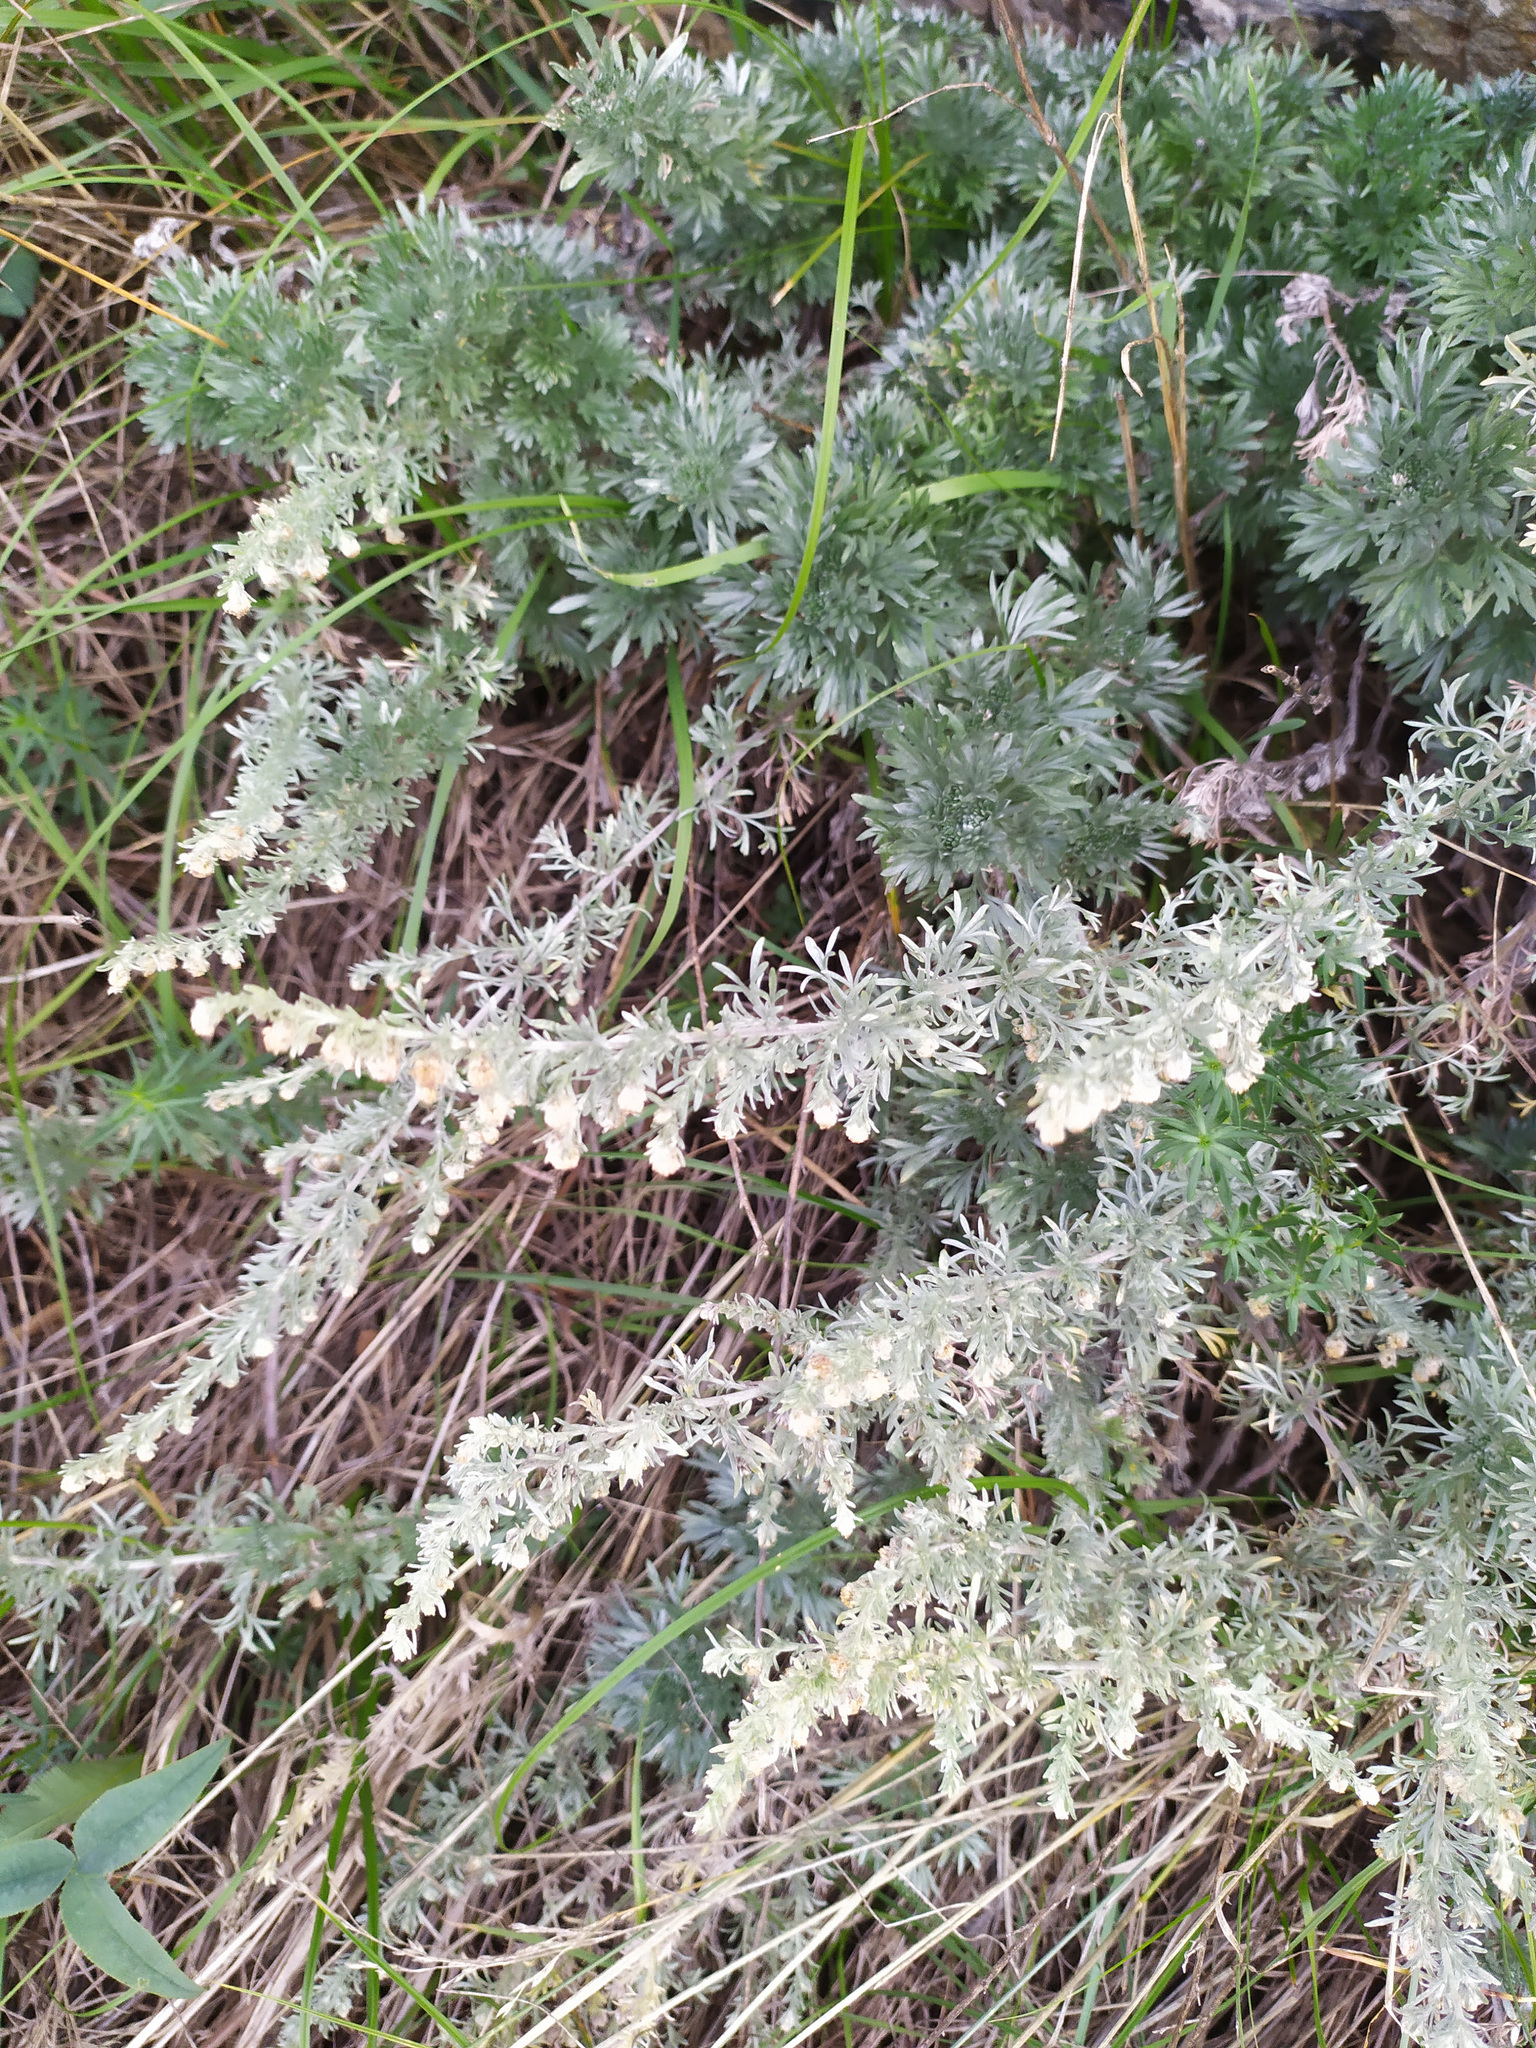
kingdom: Plantae
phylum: Tracheophyta
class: Magnoliopsida
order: Asterales
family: Asteraceae
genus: Artemisia
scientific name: Artemisia sericea
